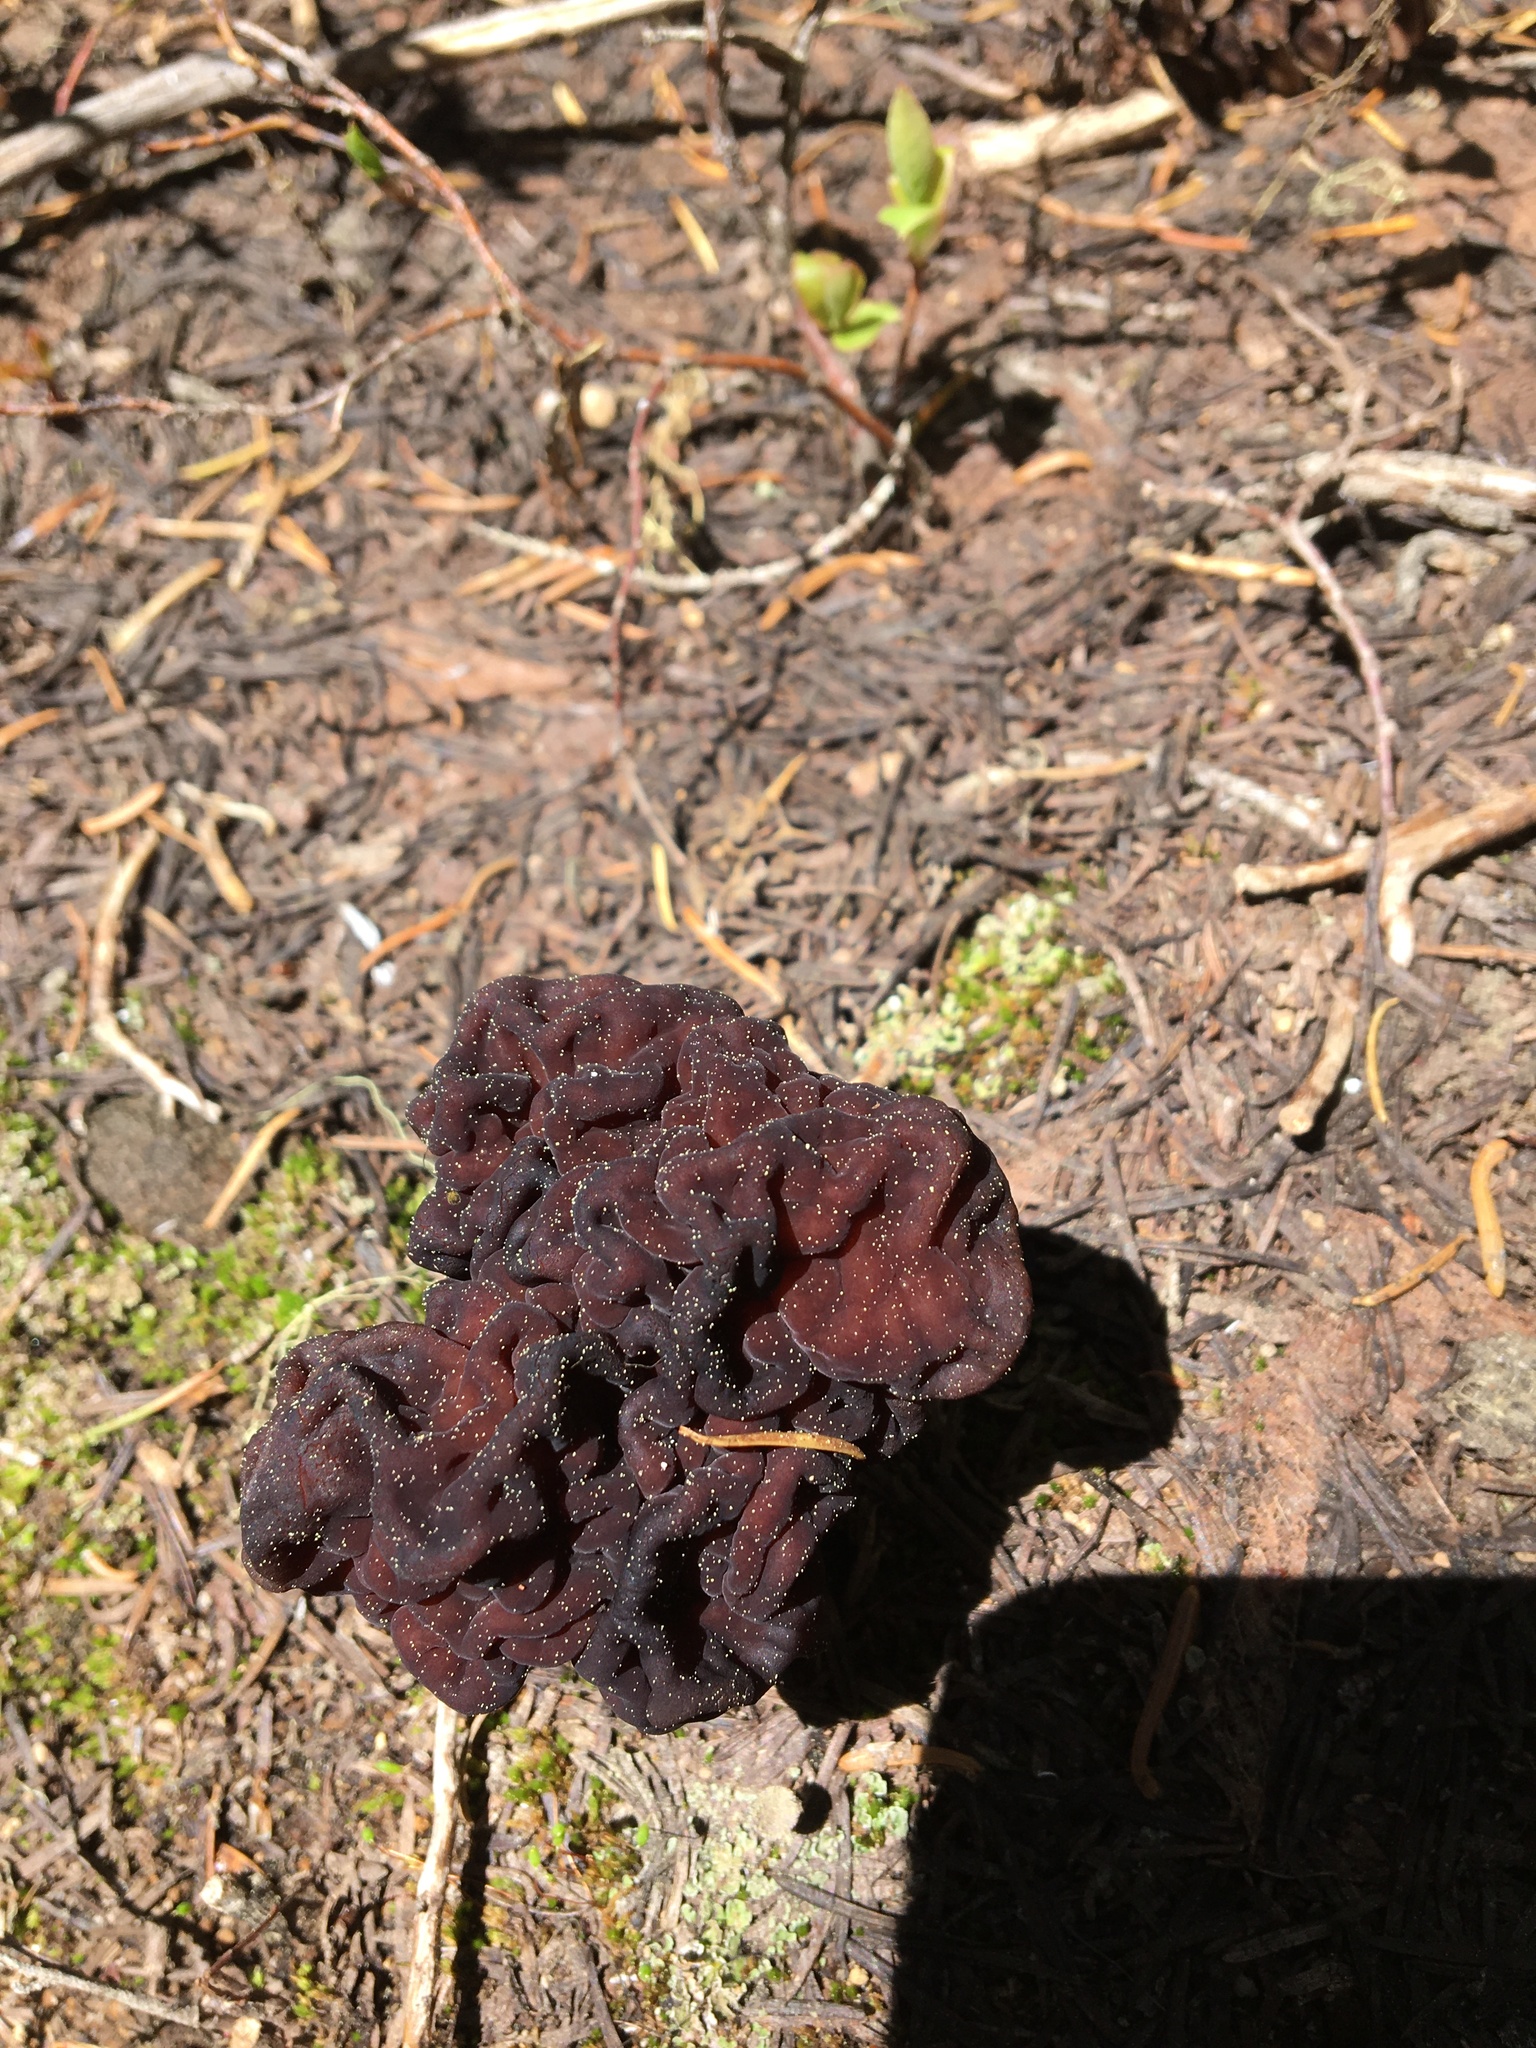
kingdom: Fungi
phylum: Ascomycota
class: Pezizomycetes
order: Pezizales
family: Discinaceae
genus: Gyromitra
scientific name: Gyromitra esculenta
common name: False morel
